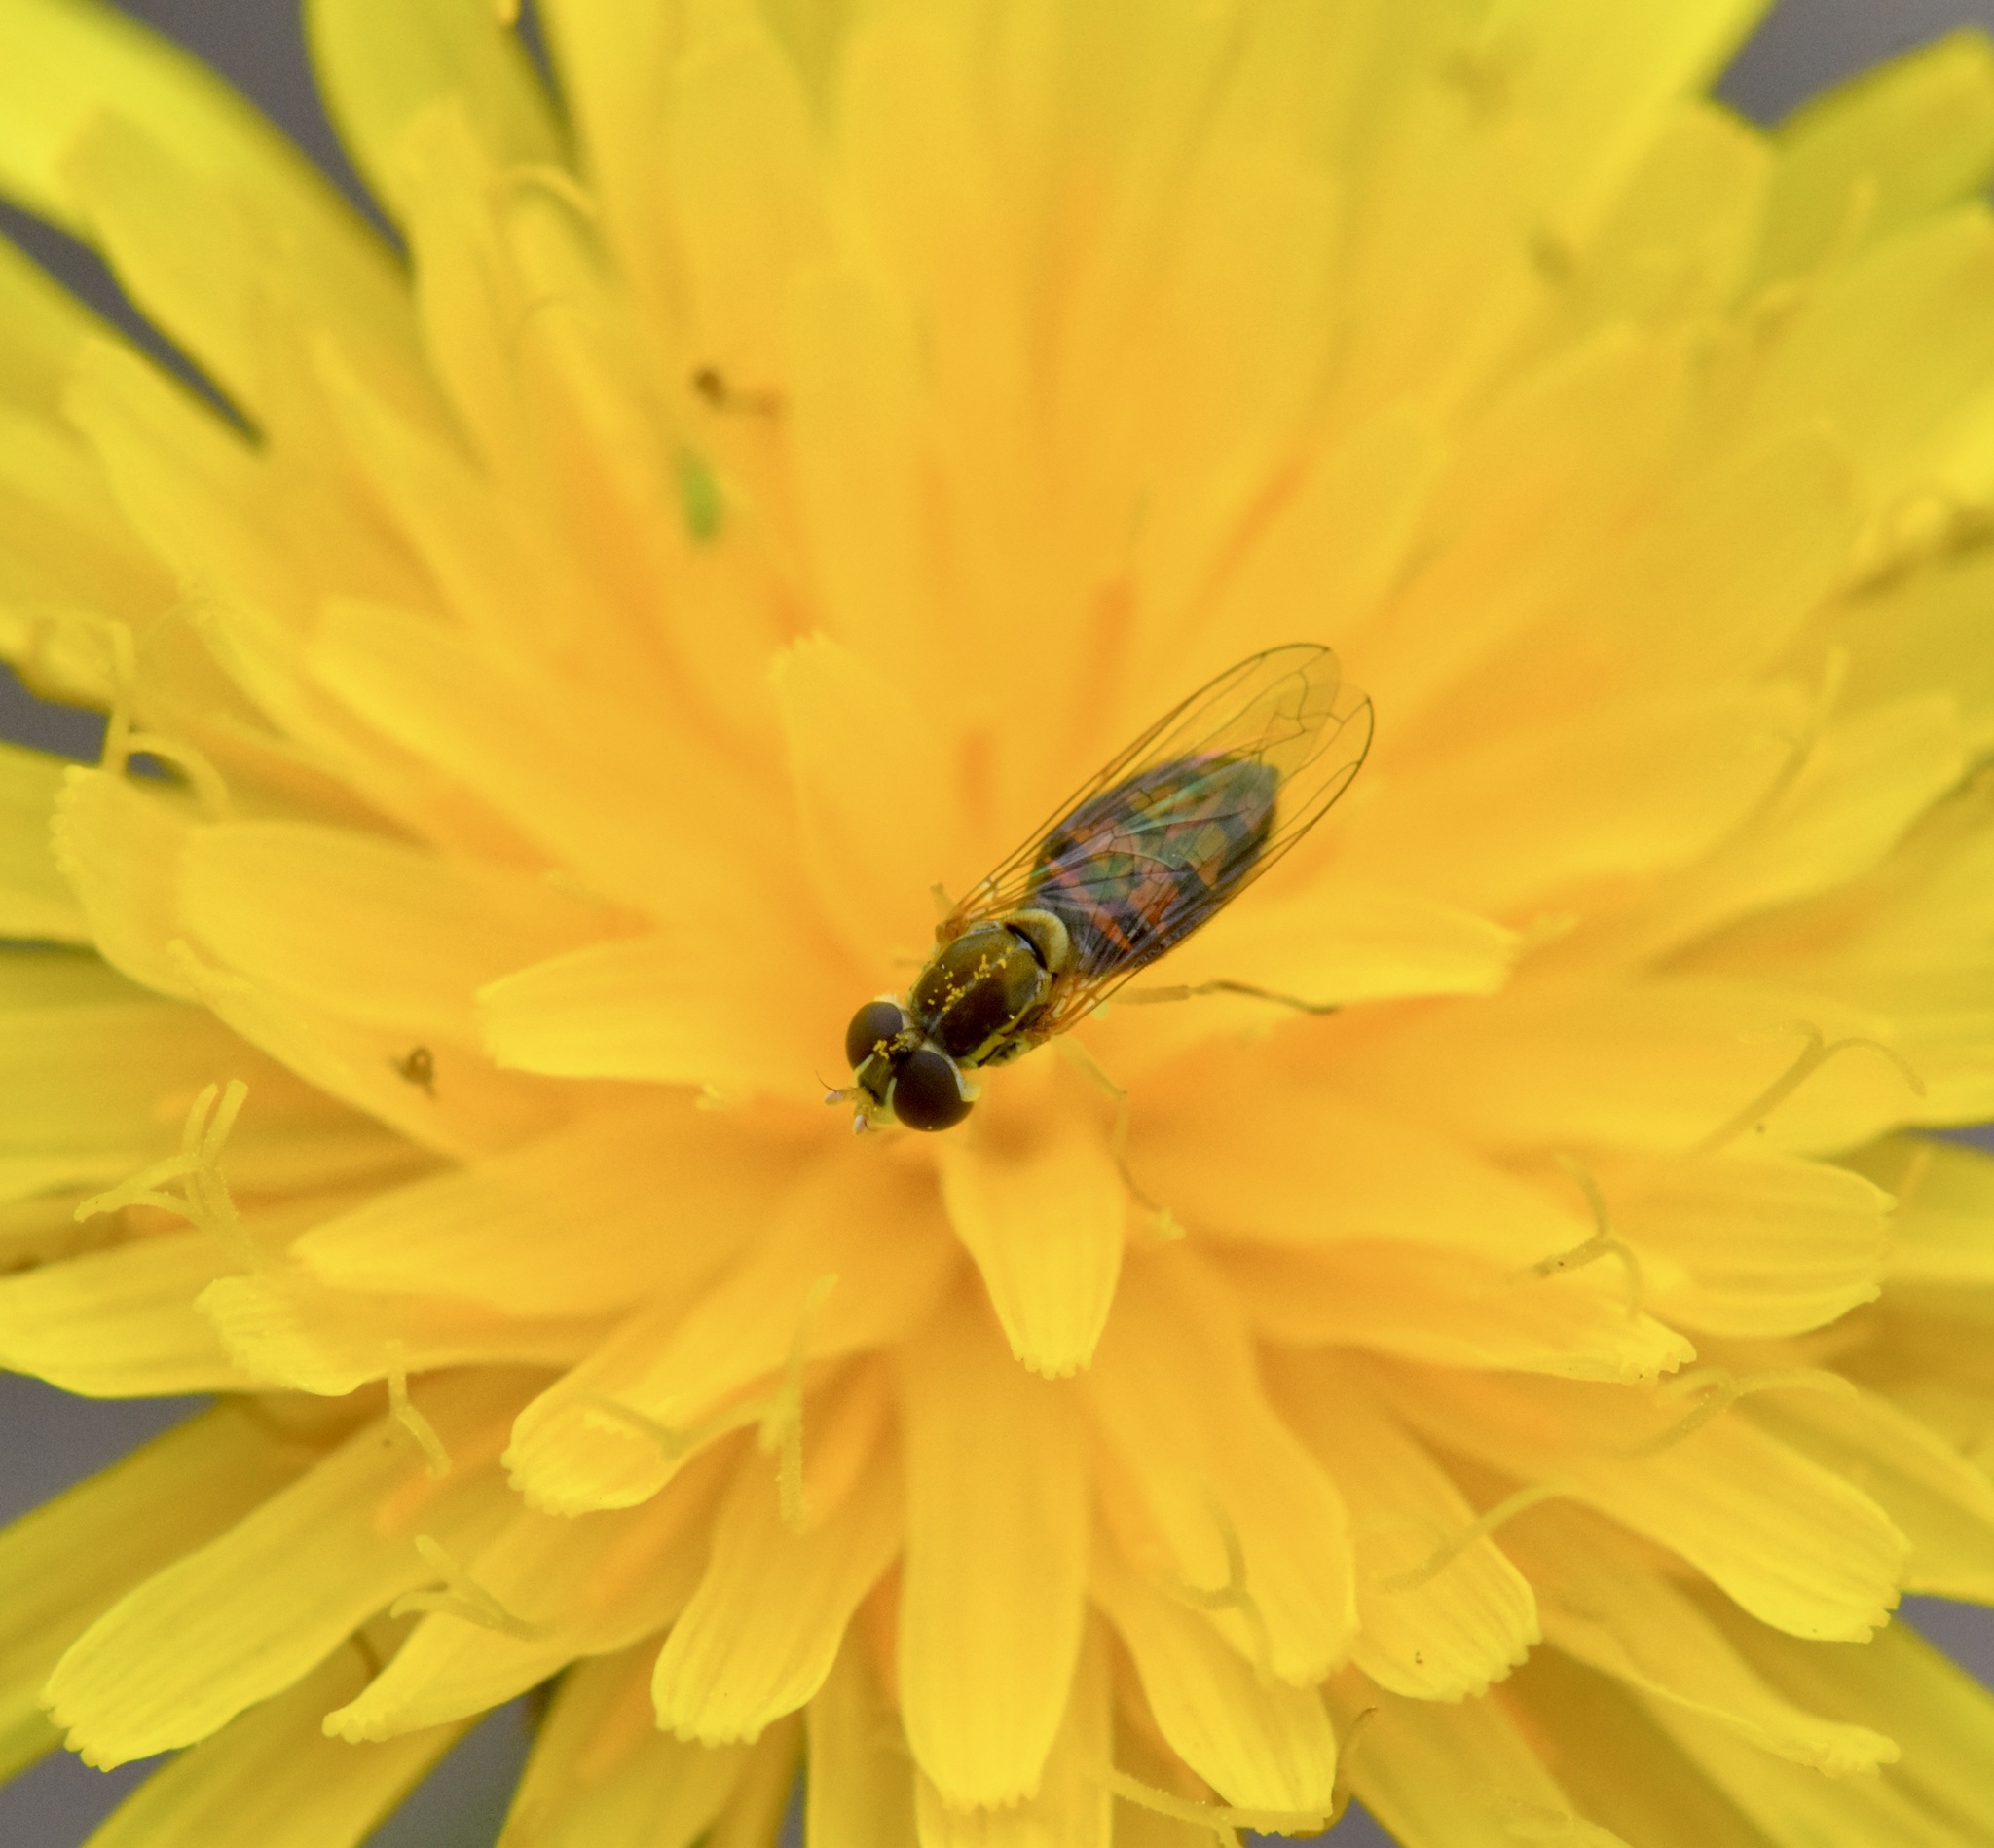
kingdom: Animalia
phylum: Arthropoda
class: Insecta
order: Diptera
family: Syrphidae
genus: Toxomerus
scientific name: Toxomerus marginatus
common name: Syrphid fly
